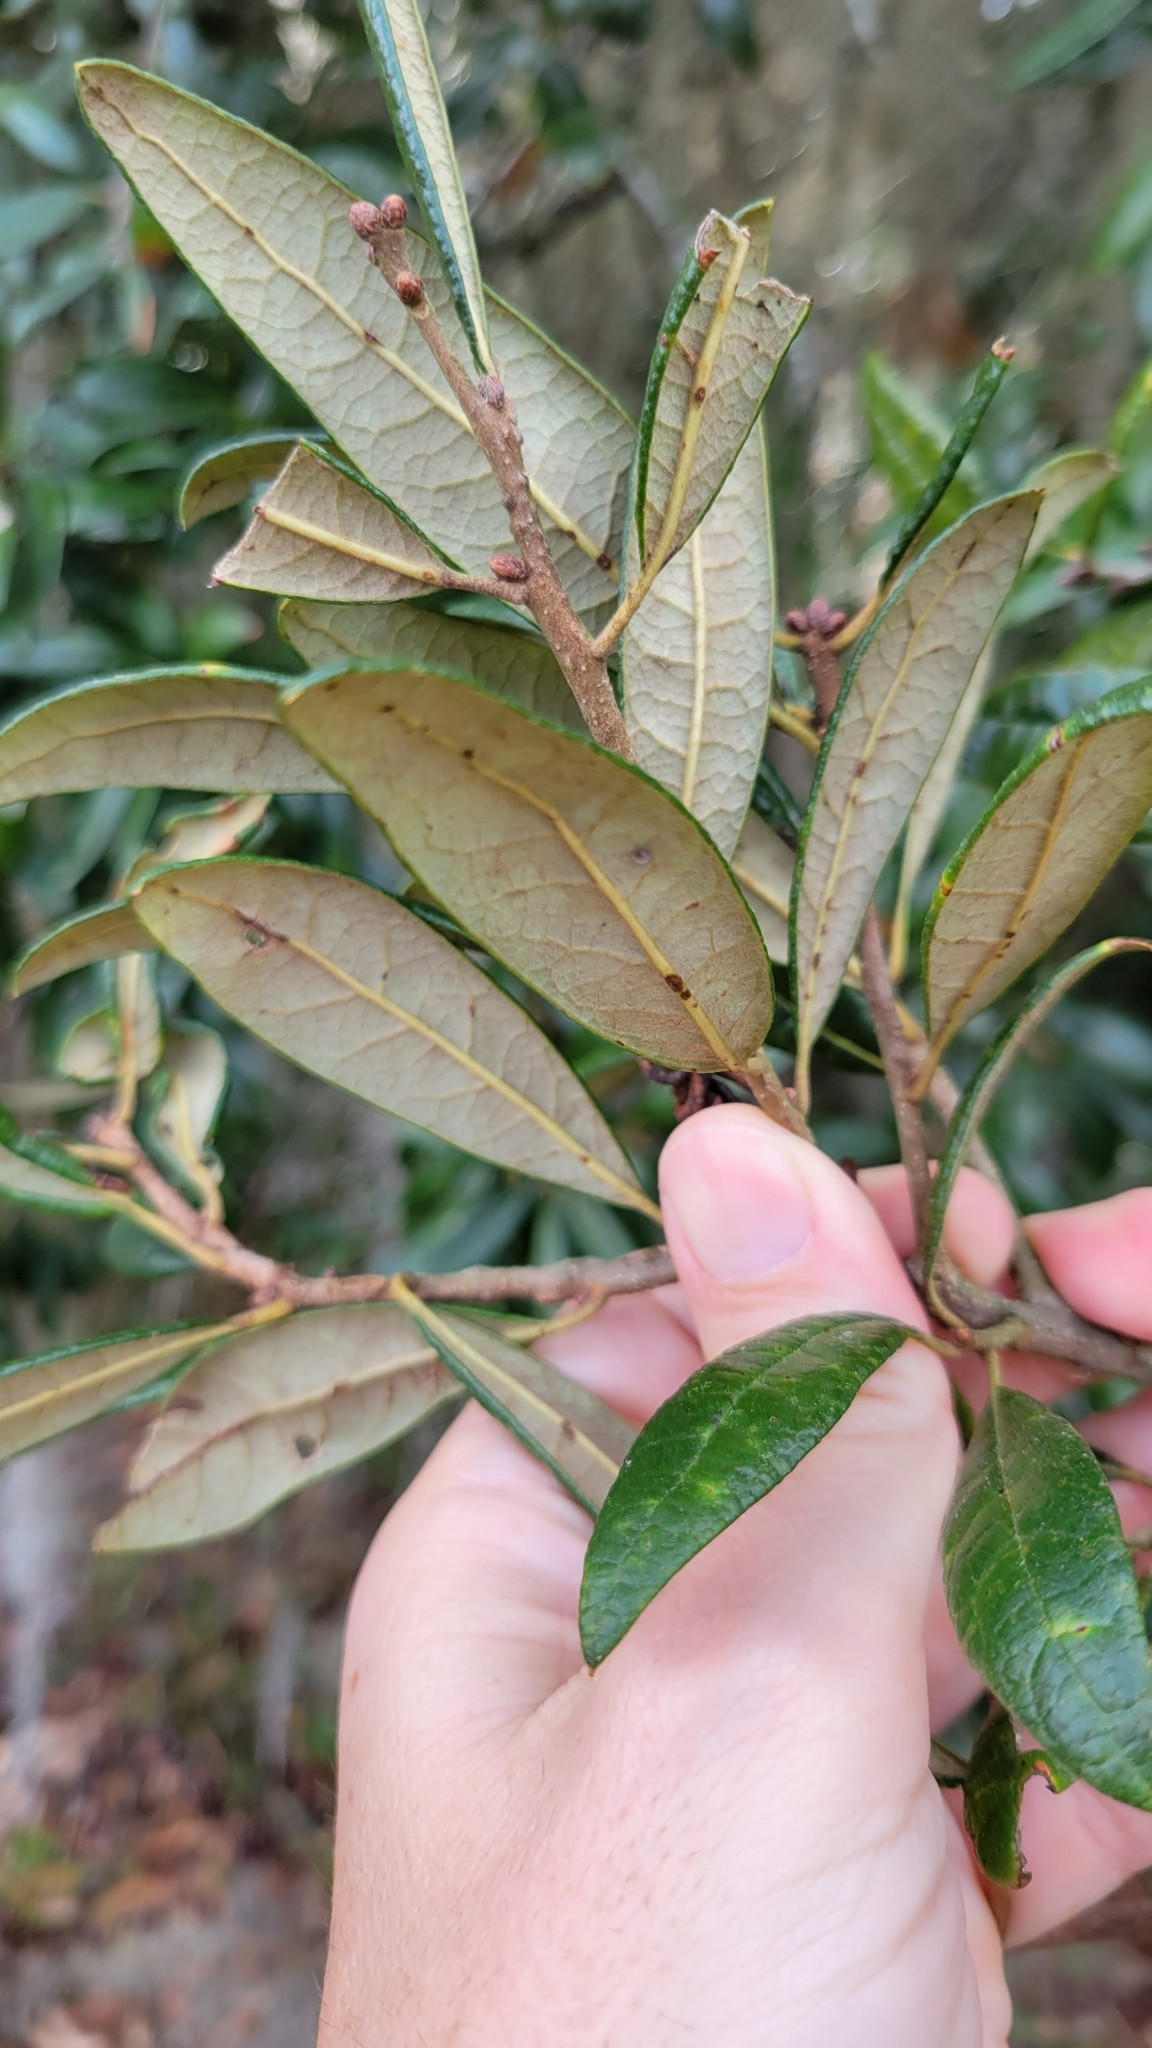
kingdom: Plantae
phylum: Tracheophyta
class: Magnoliopsida
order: Fagales
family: Fagaceae
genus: Quercus
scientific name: Quercus geminata
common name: Sand live oak
